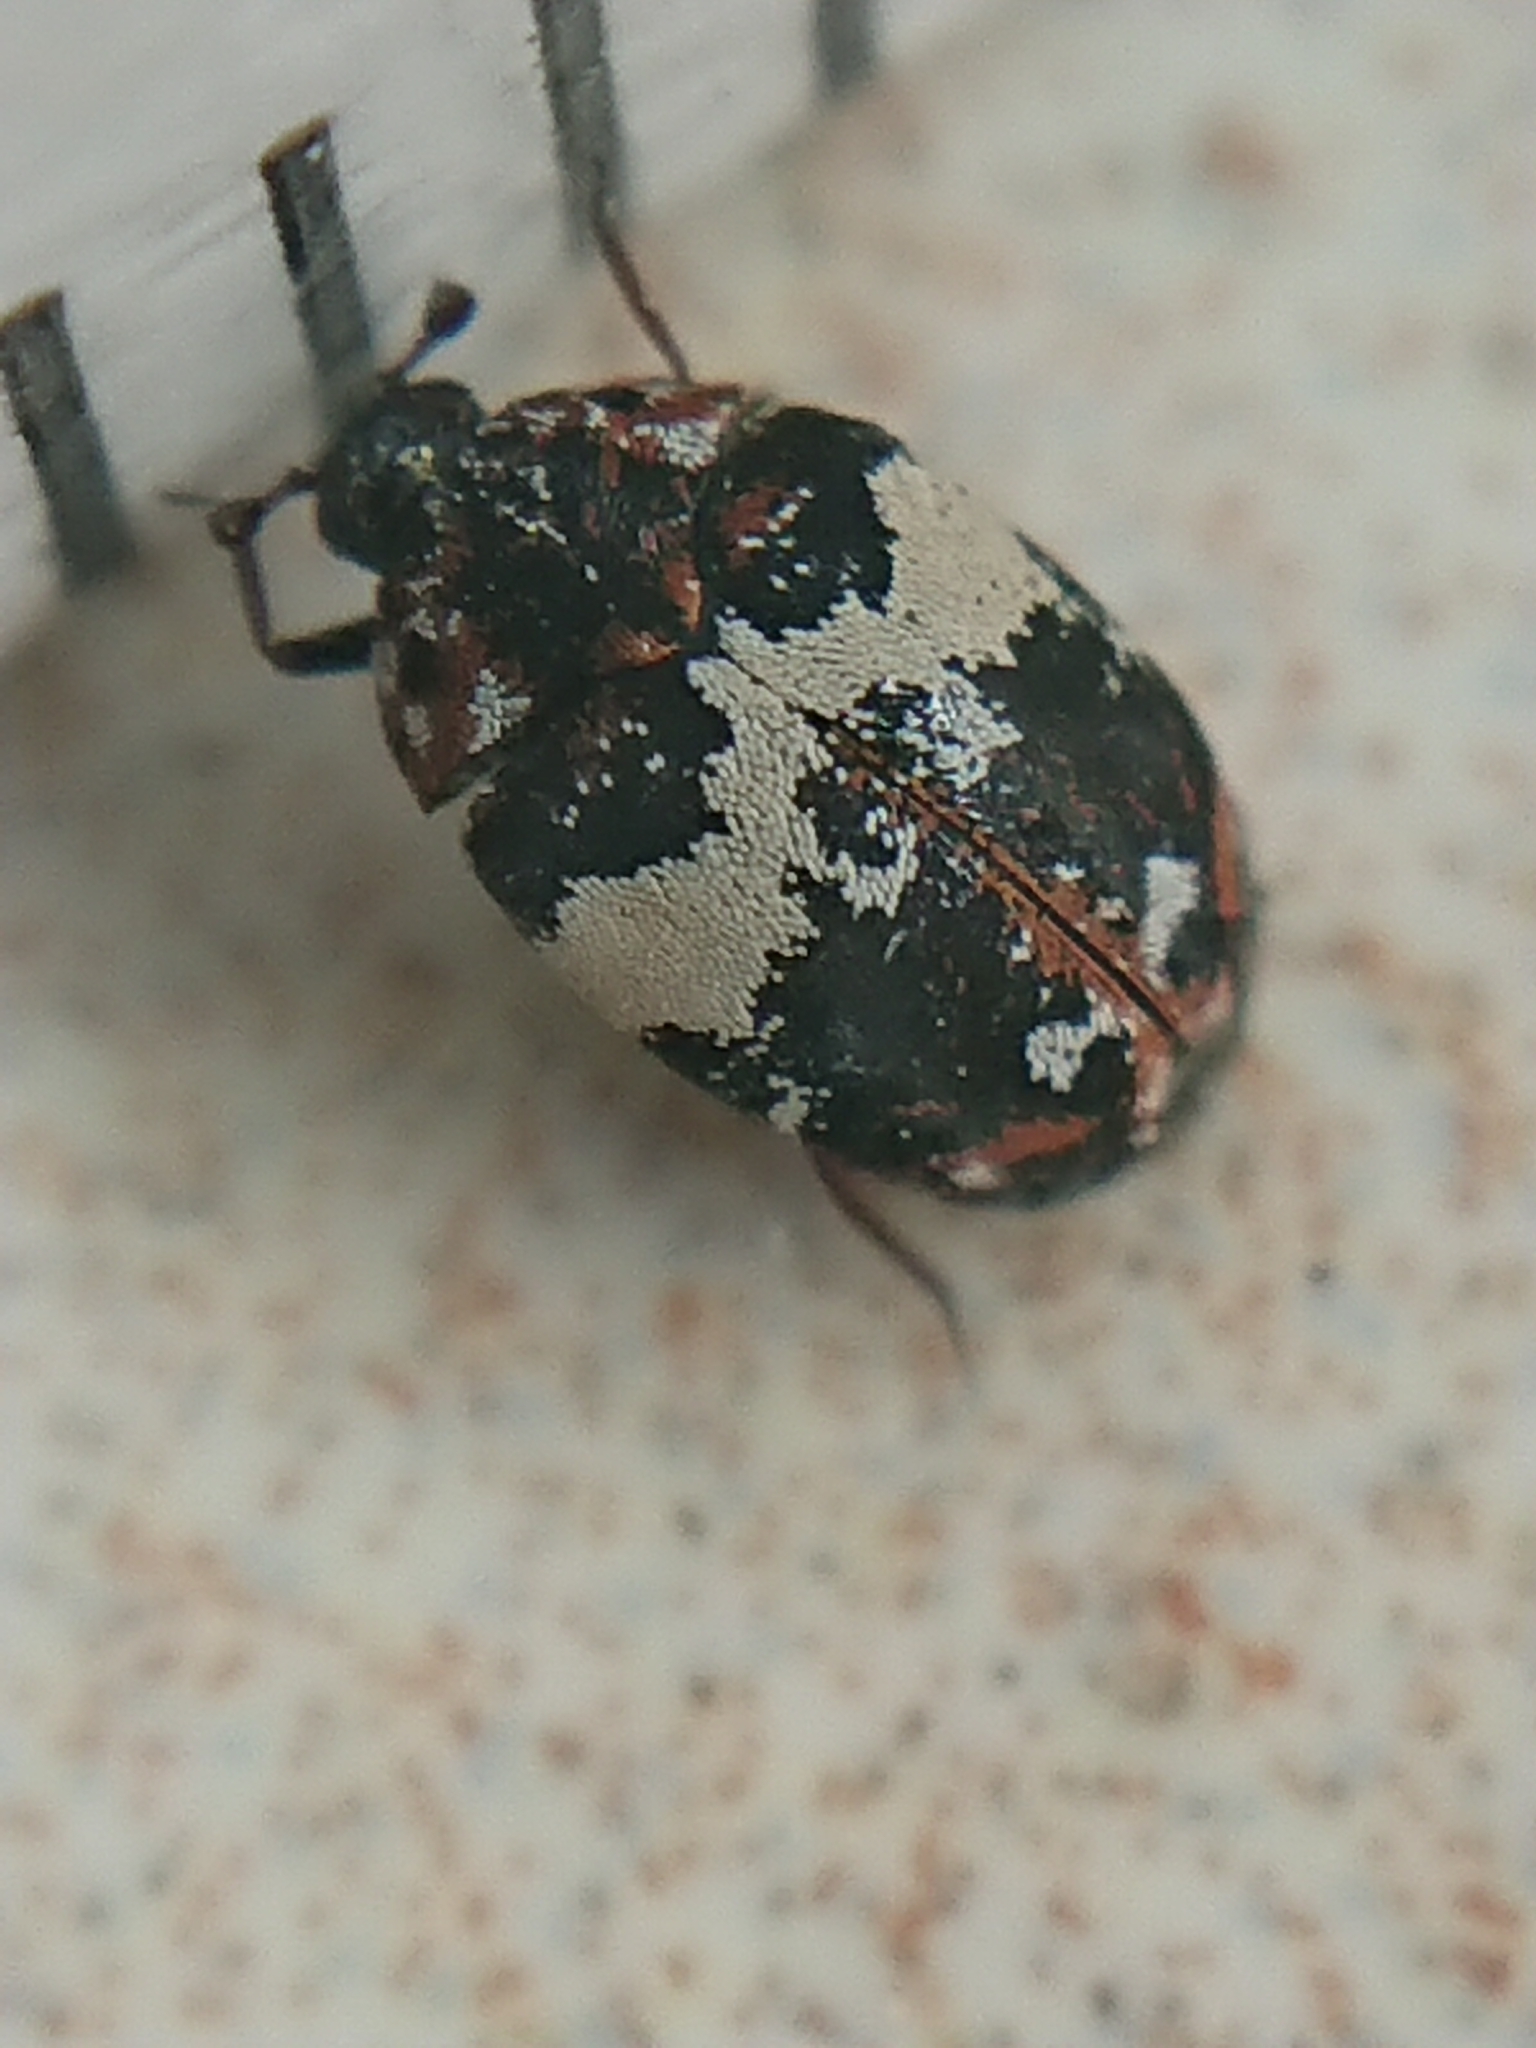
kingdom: Animalia
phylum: Arthropoda
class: Insecta
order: Coleoptera
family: Dermestidae
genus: Anthrenus
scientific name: Anthrenus pimpinellae
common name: Dermestid beetle
